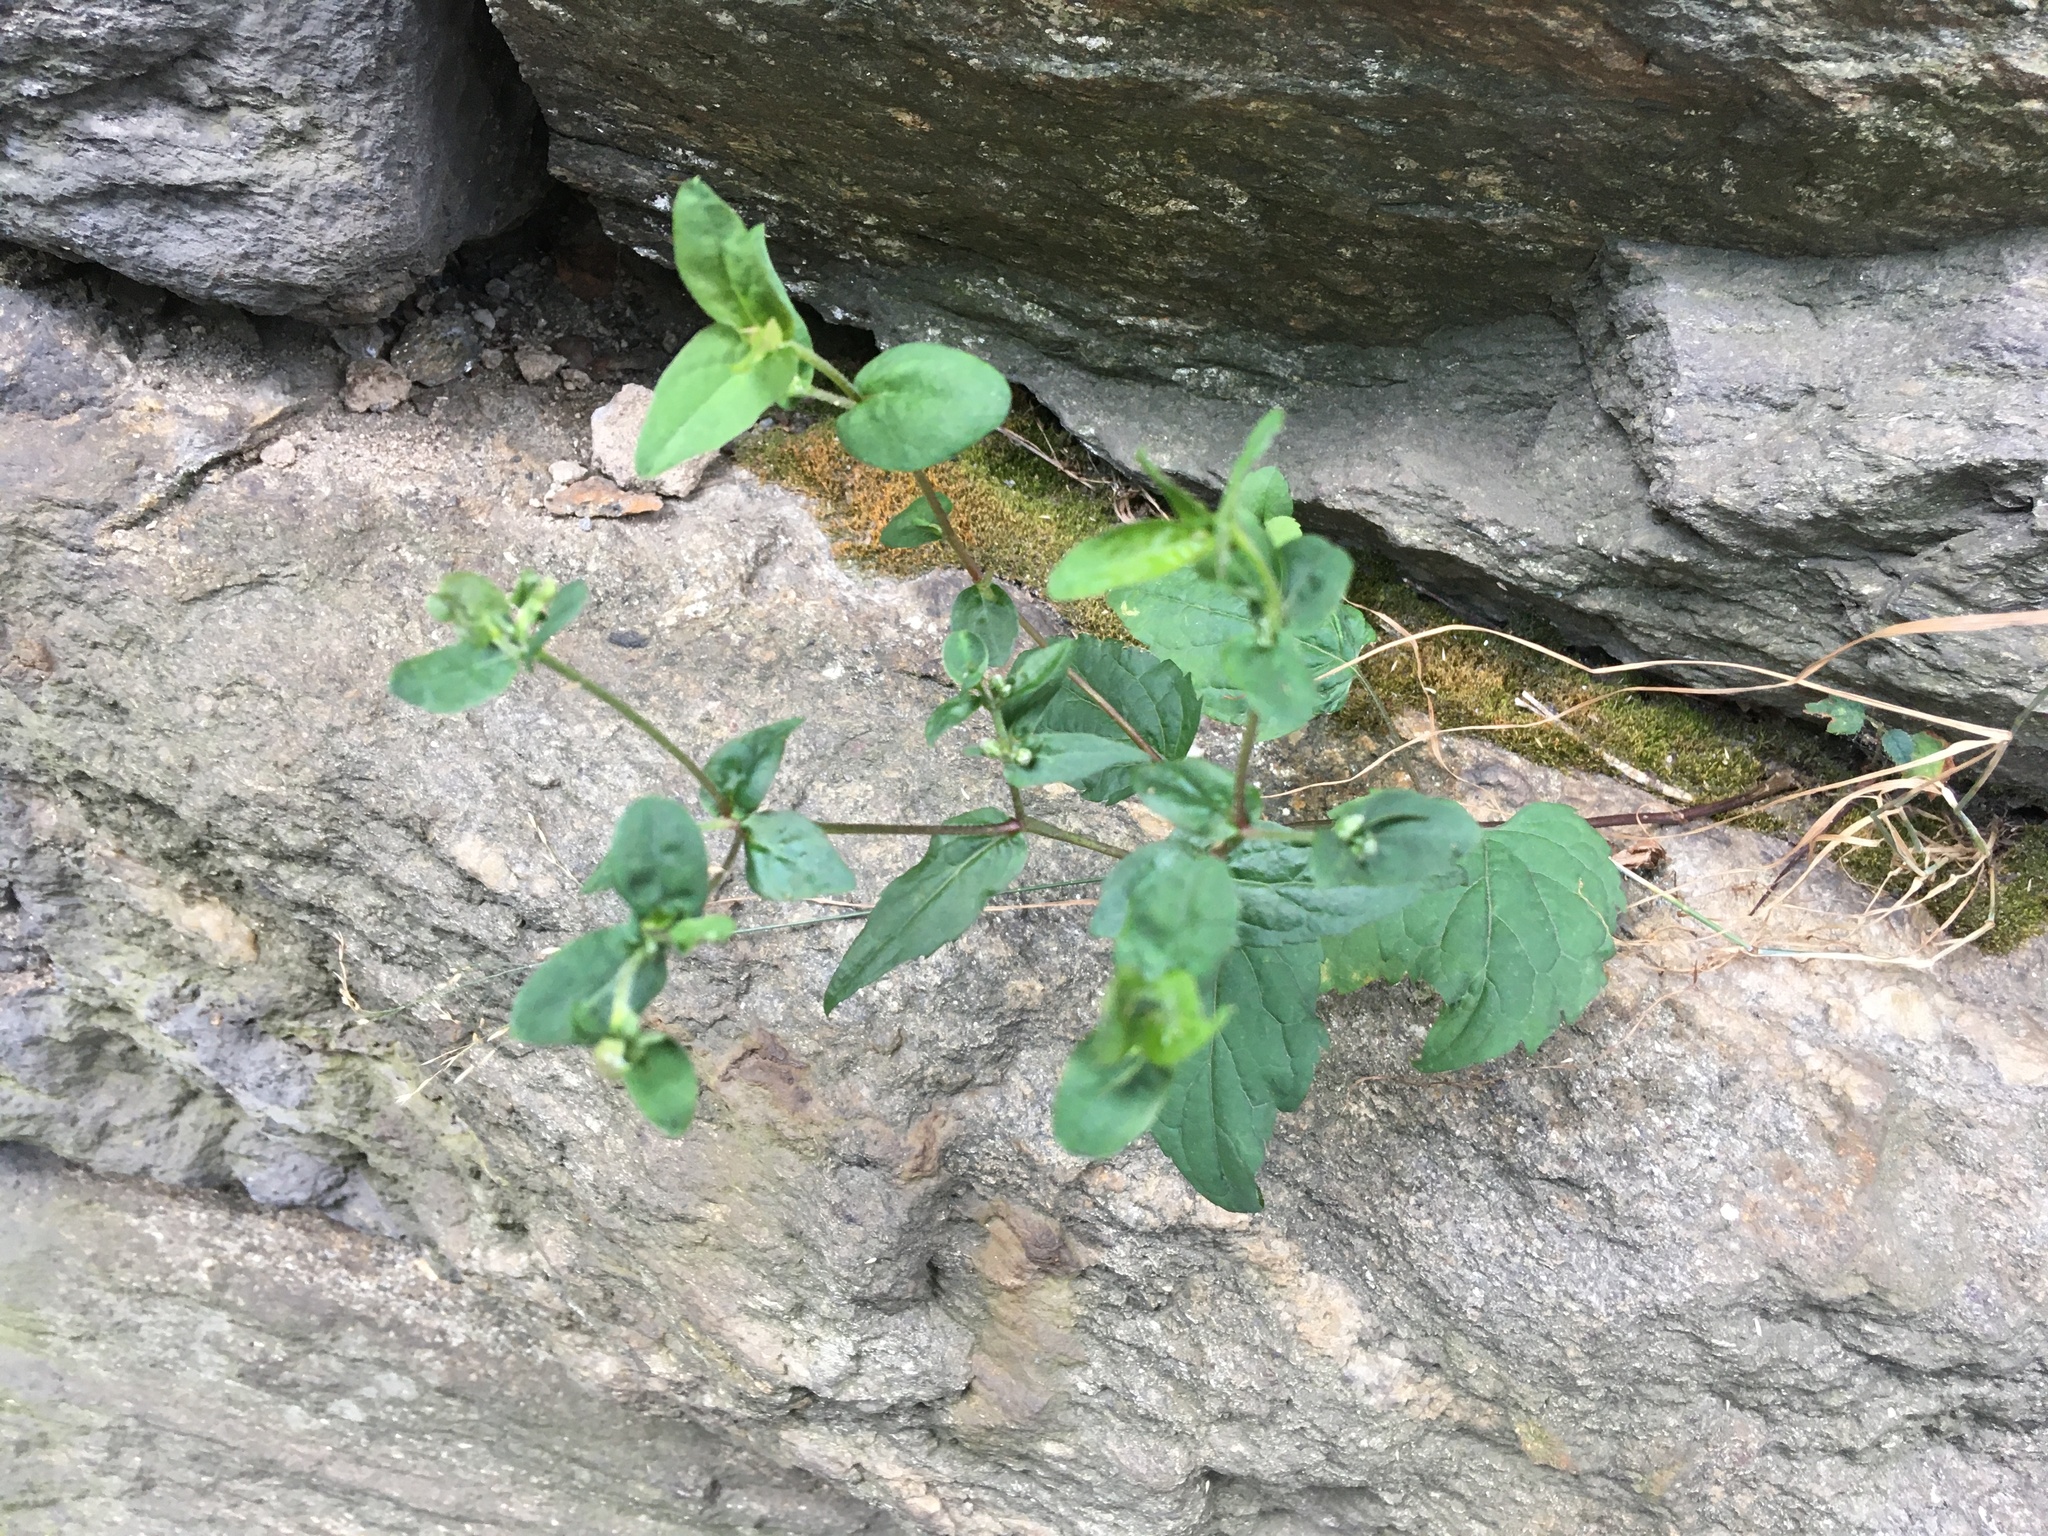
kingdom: Plantae
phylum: Tracheophyta
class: Magnoliopsida
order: Asterales
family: Asteraceae
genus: Eurybia
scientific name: Eurybia divaricata
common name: White wood aster
